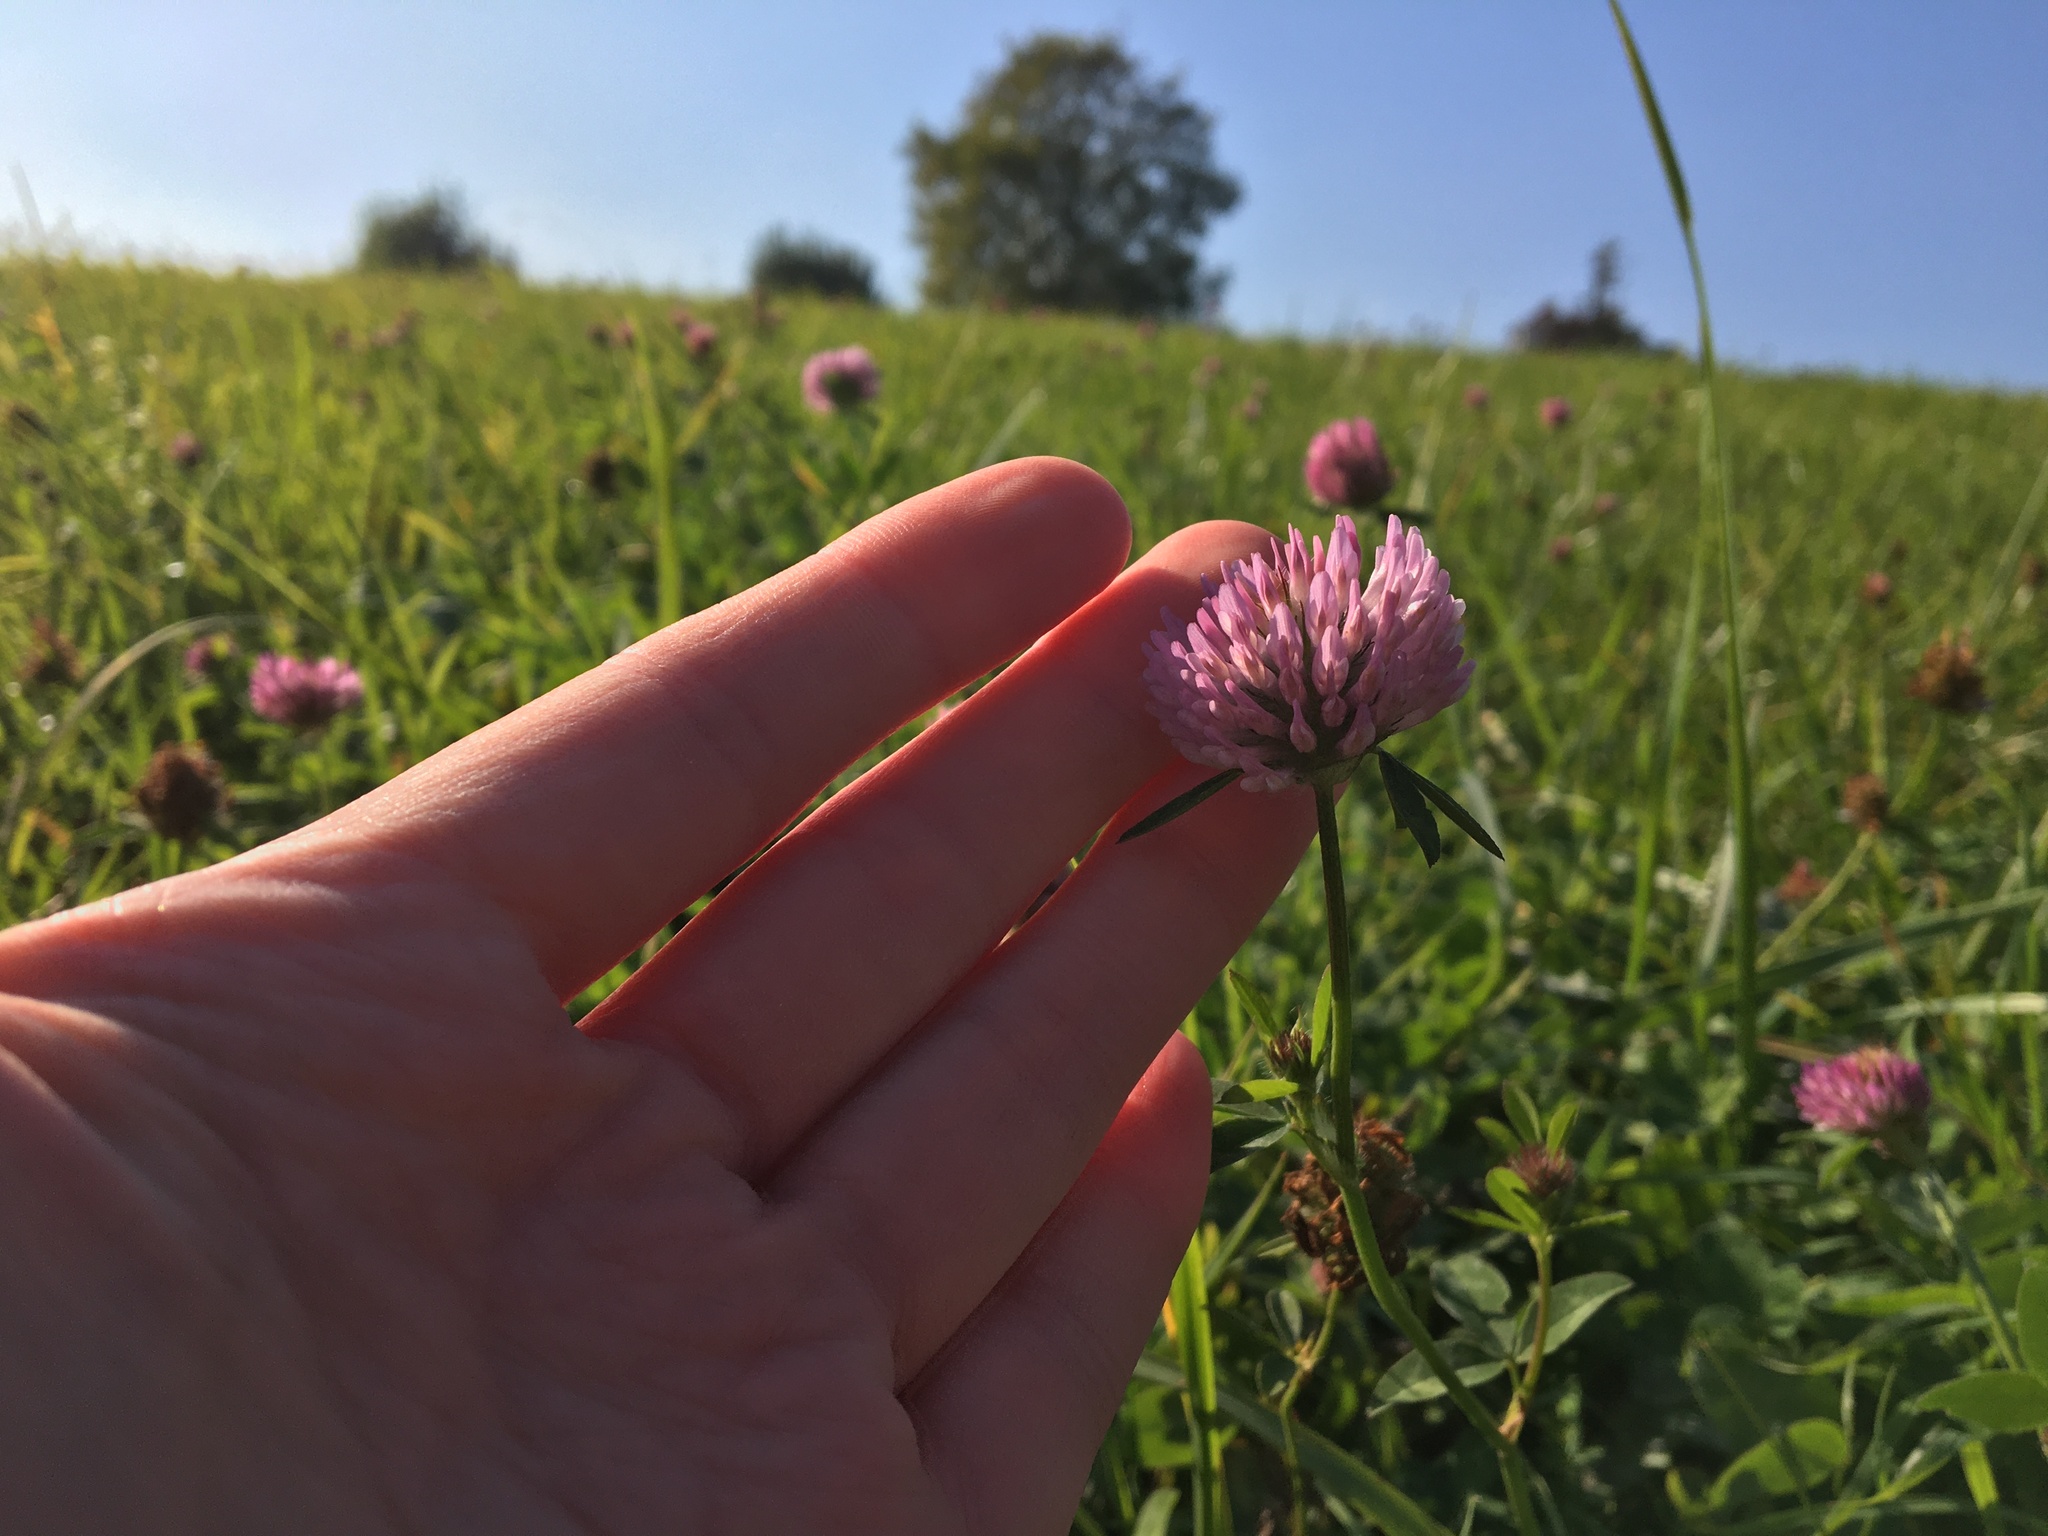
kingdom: Plantae
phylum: Tracheophyta
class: Magnoliopsida
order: Fabales
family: Fabaceae
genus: Trifolium
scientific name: Trifolium pratense
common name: Red clover
